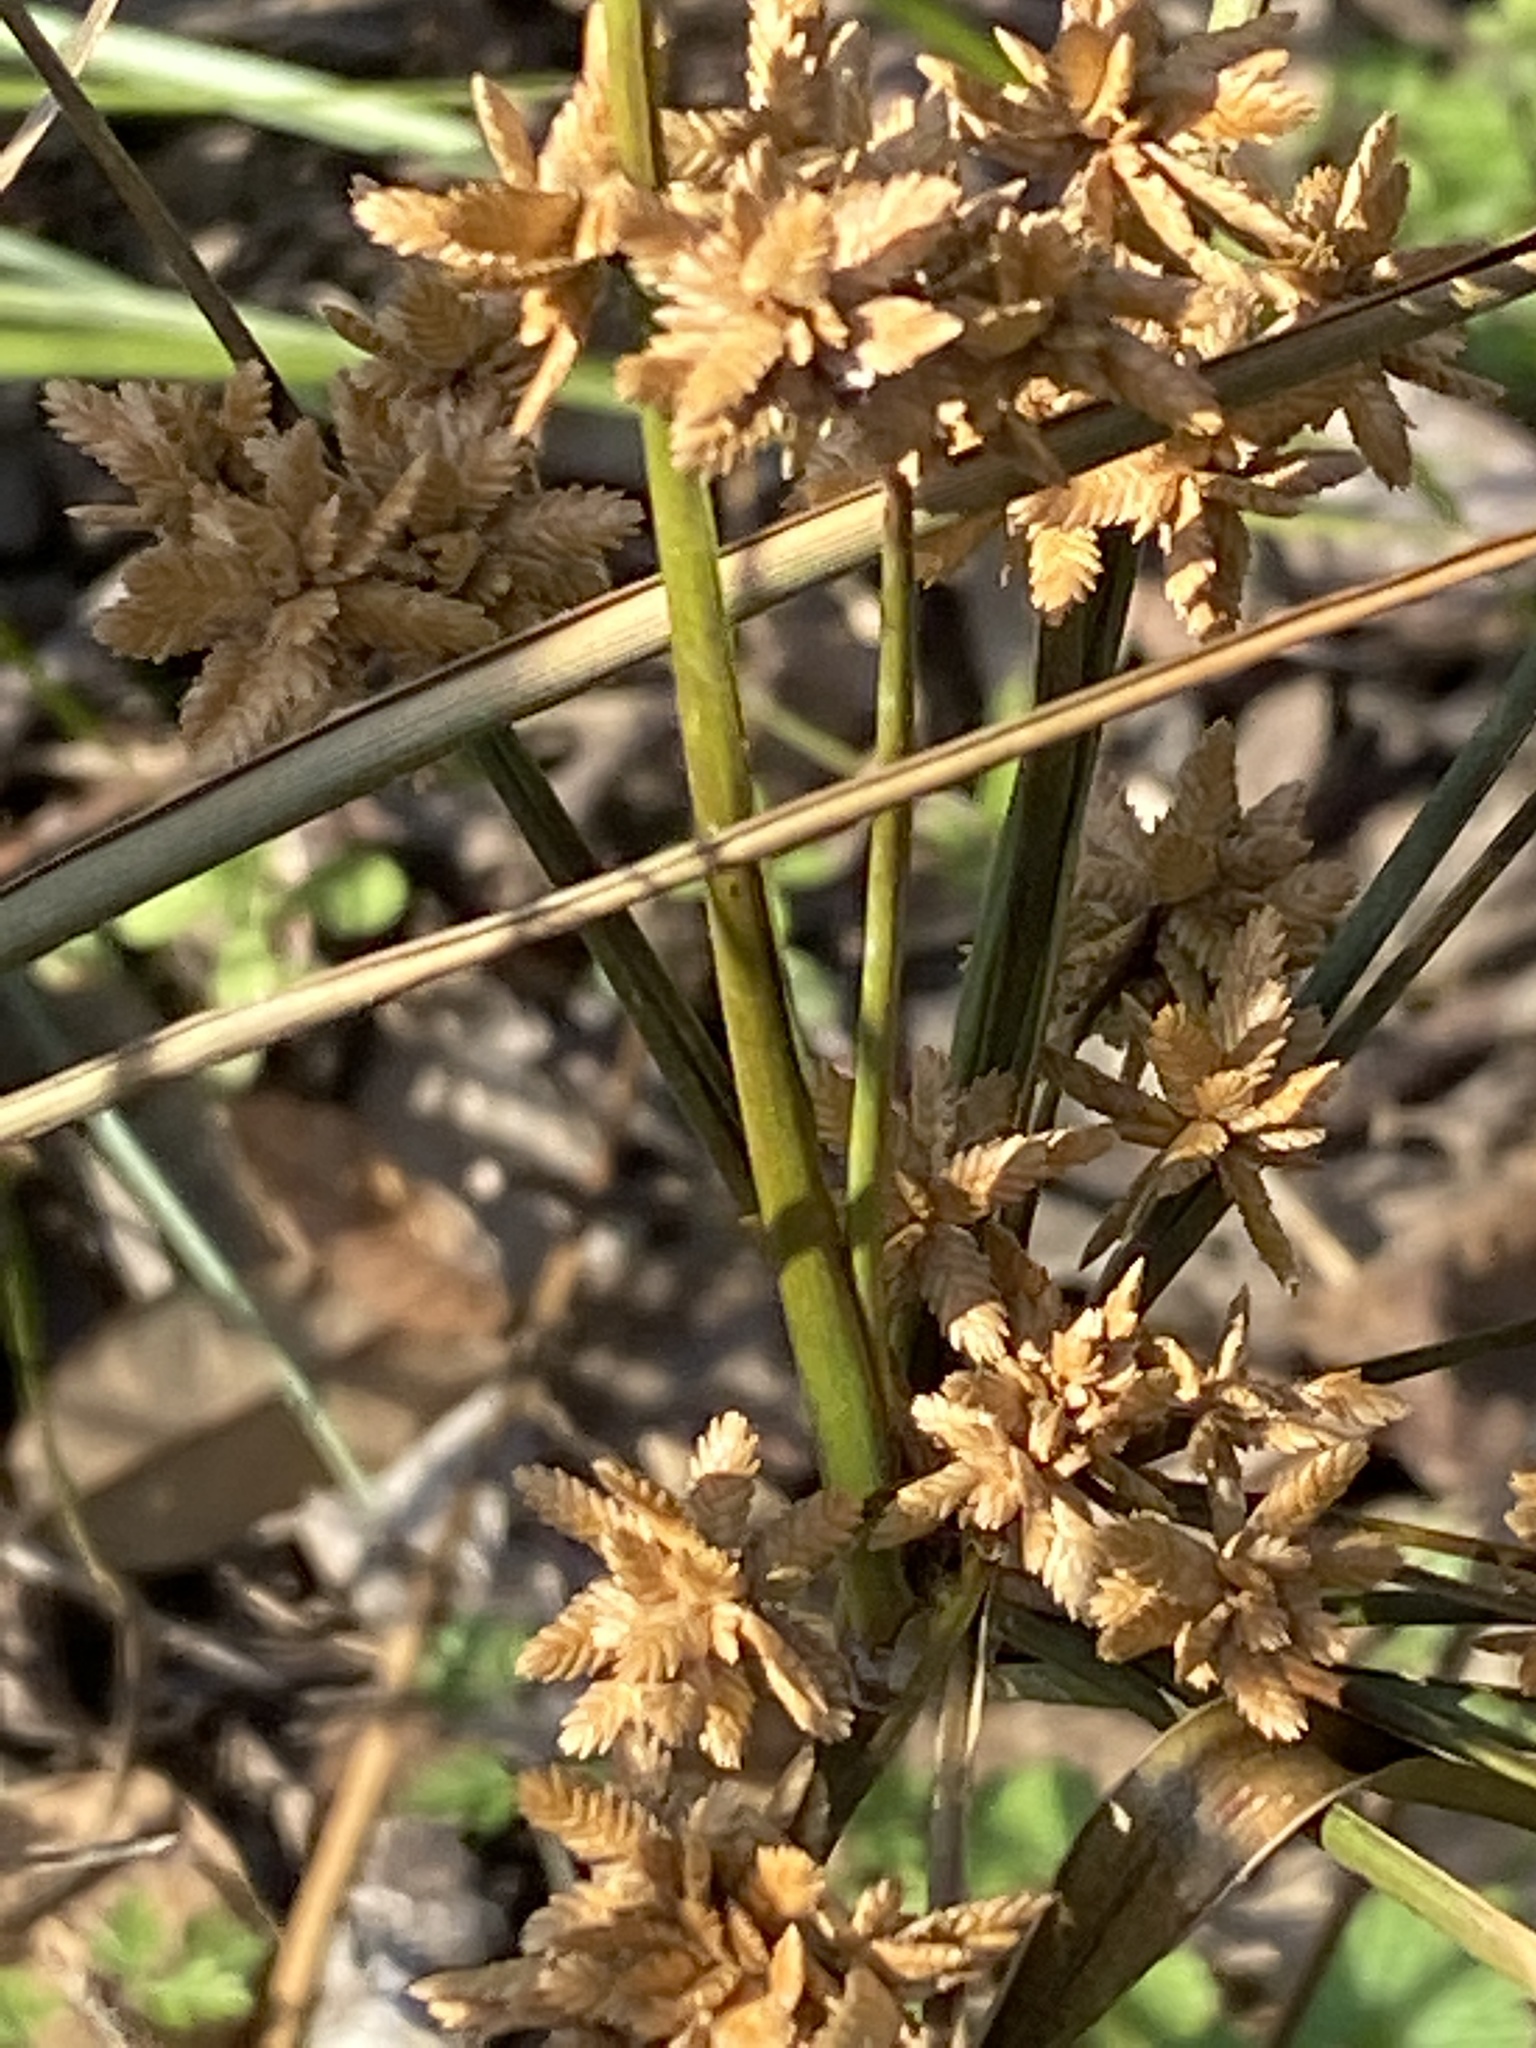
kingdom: Plantae
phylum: Tracheophyta
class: Liliopsida
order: Poales
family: Cyperaceae
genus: Cyperus
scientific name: Cyperus ochraceus
